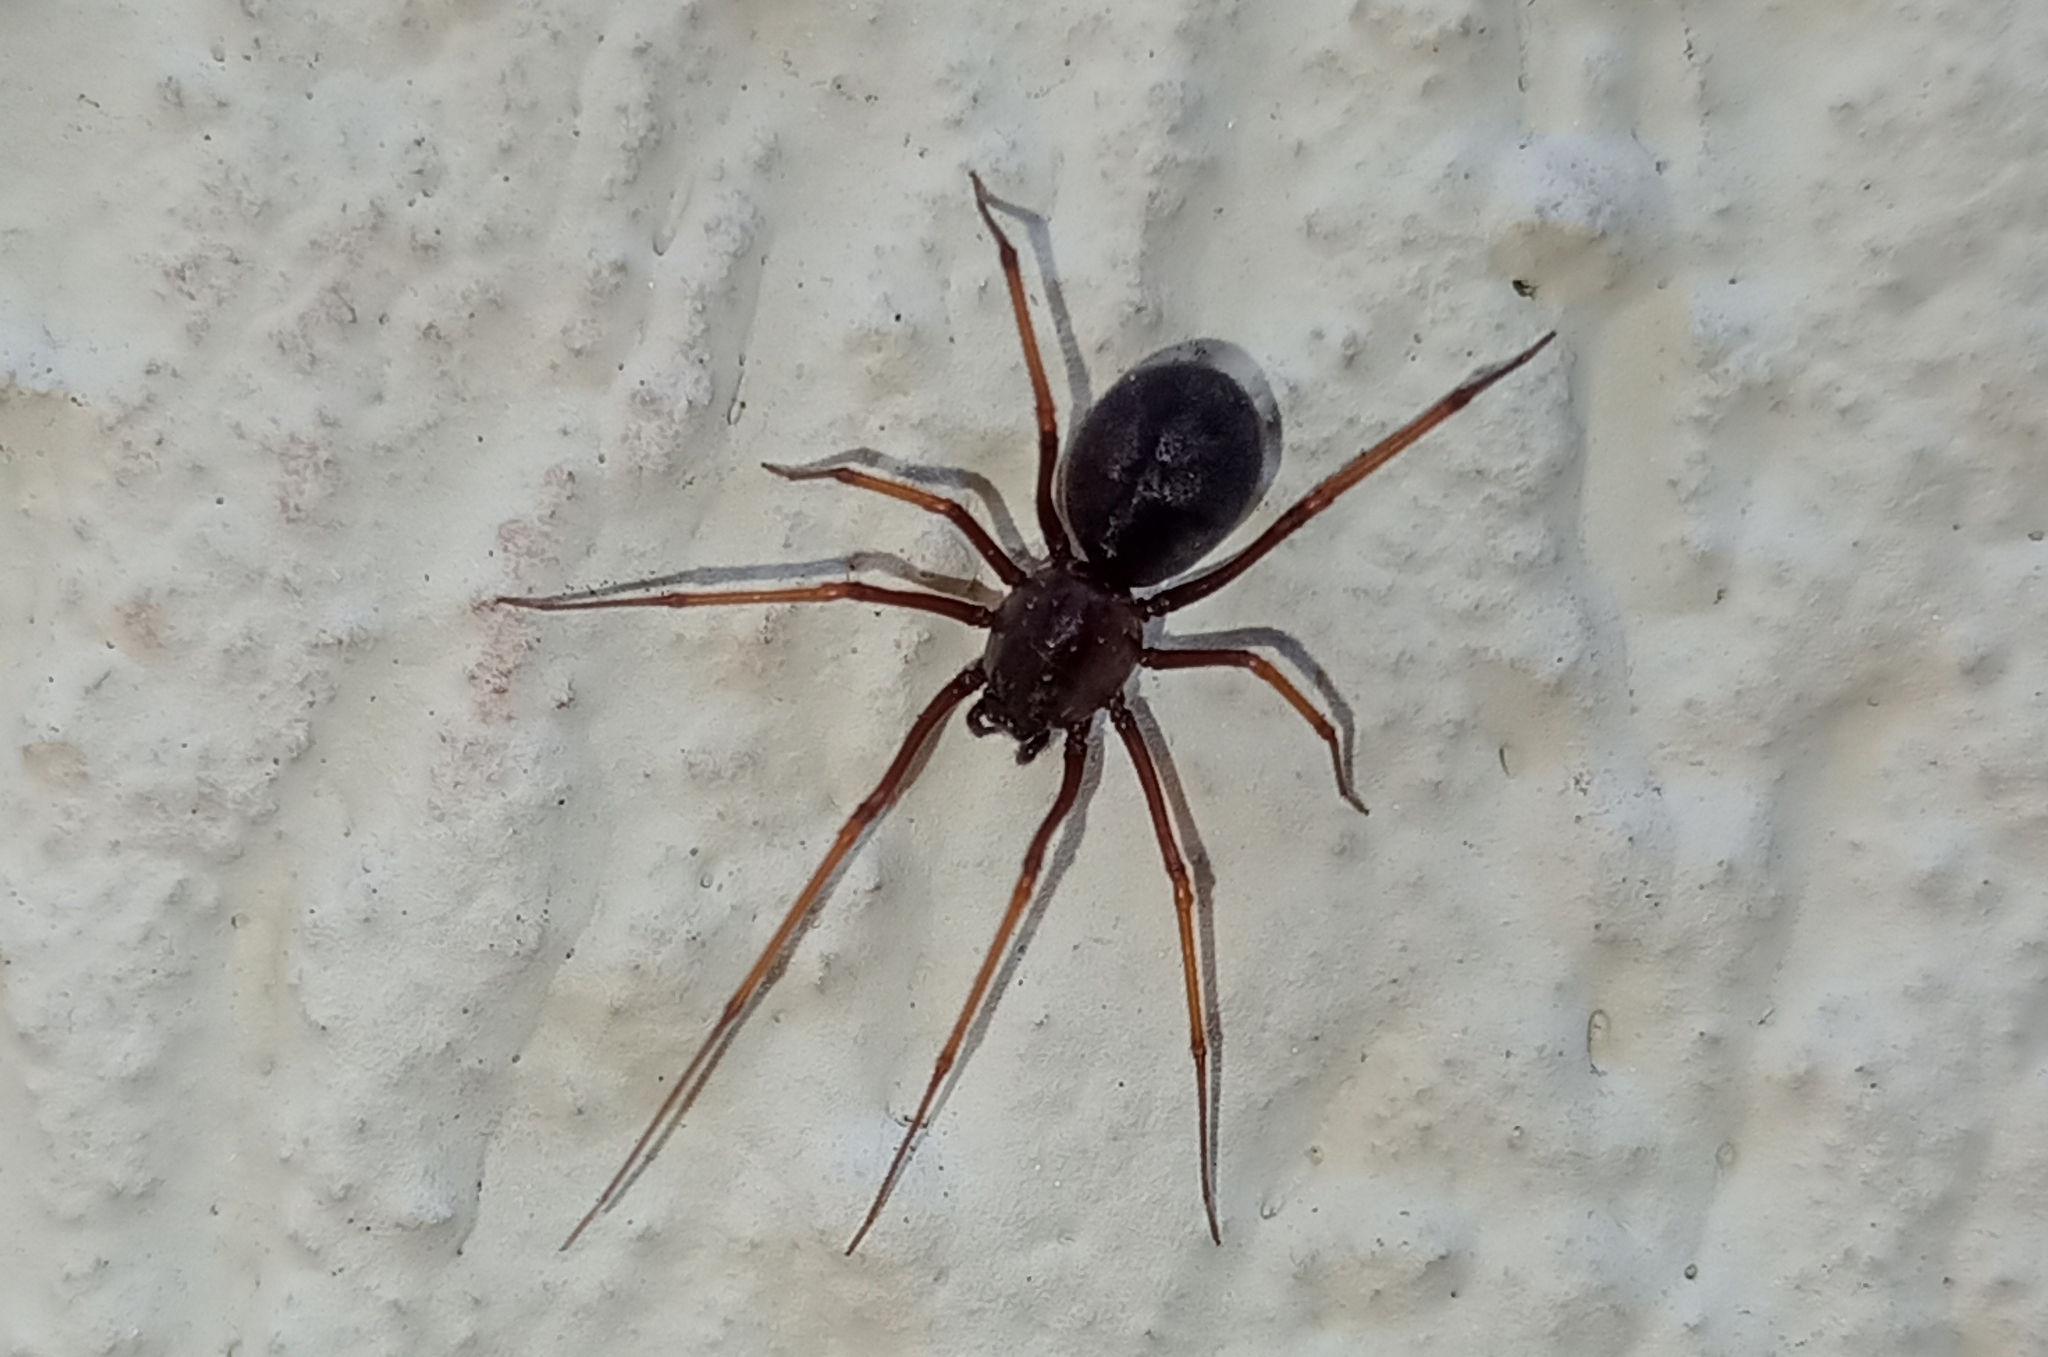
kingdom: Animalia
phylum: Arthropoda
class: Arachnida
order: Araneae
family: Scytodidae
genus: Scytodes
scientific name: Scytodes fusca
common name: Spitting spiders
